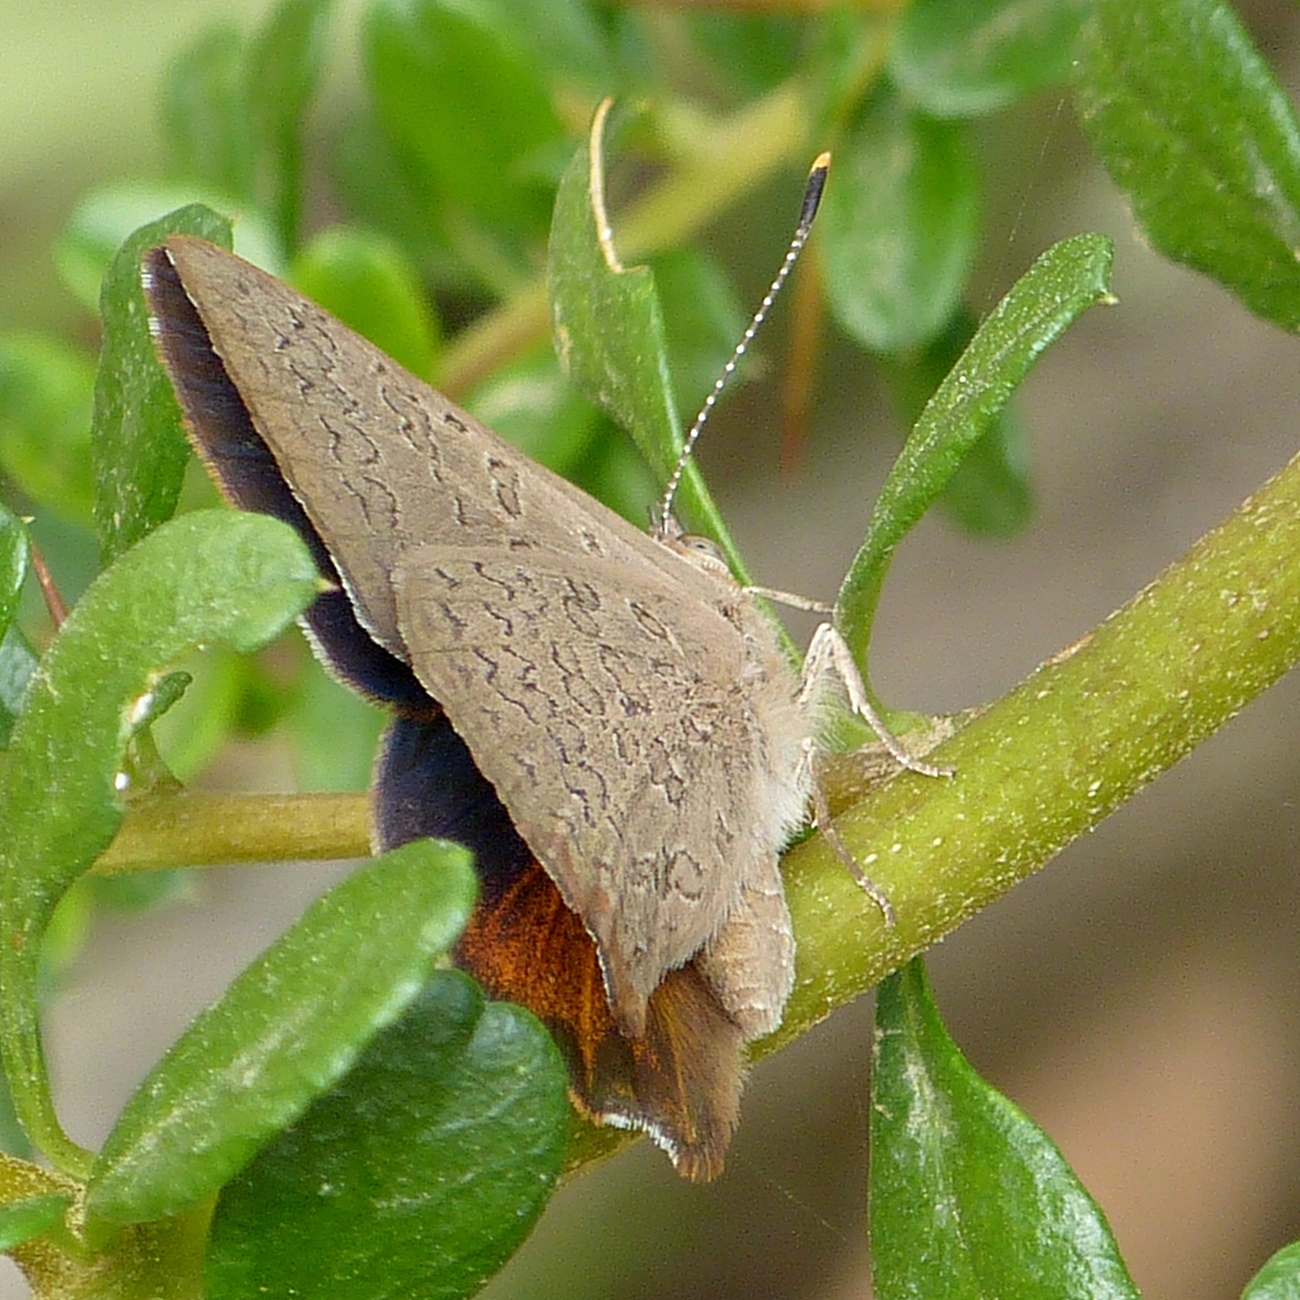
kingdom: Animalia
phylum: Arthropoda
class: Insecta
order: Lepidoptera
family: Lycaenidae
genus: Paralucia
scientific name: Paralucia pyrodiscus
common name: Fiery copper
